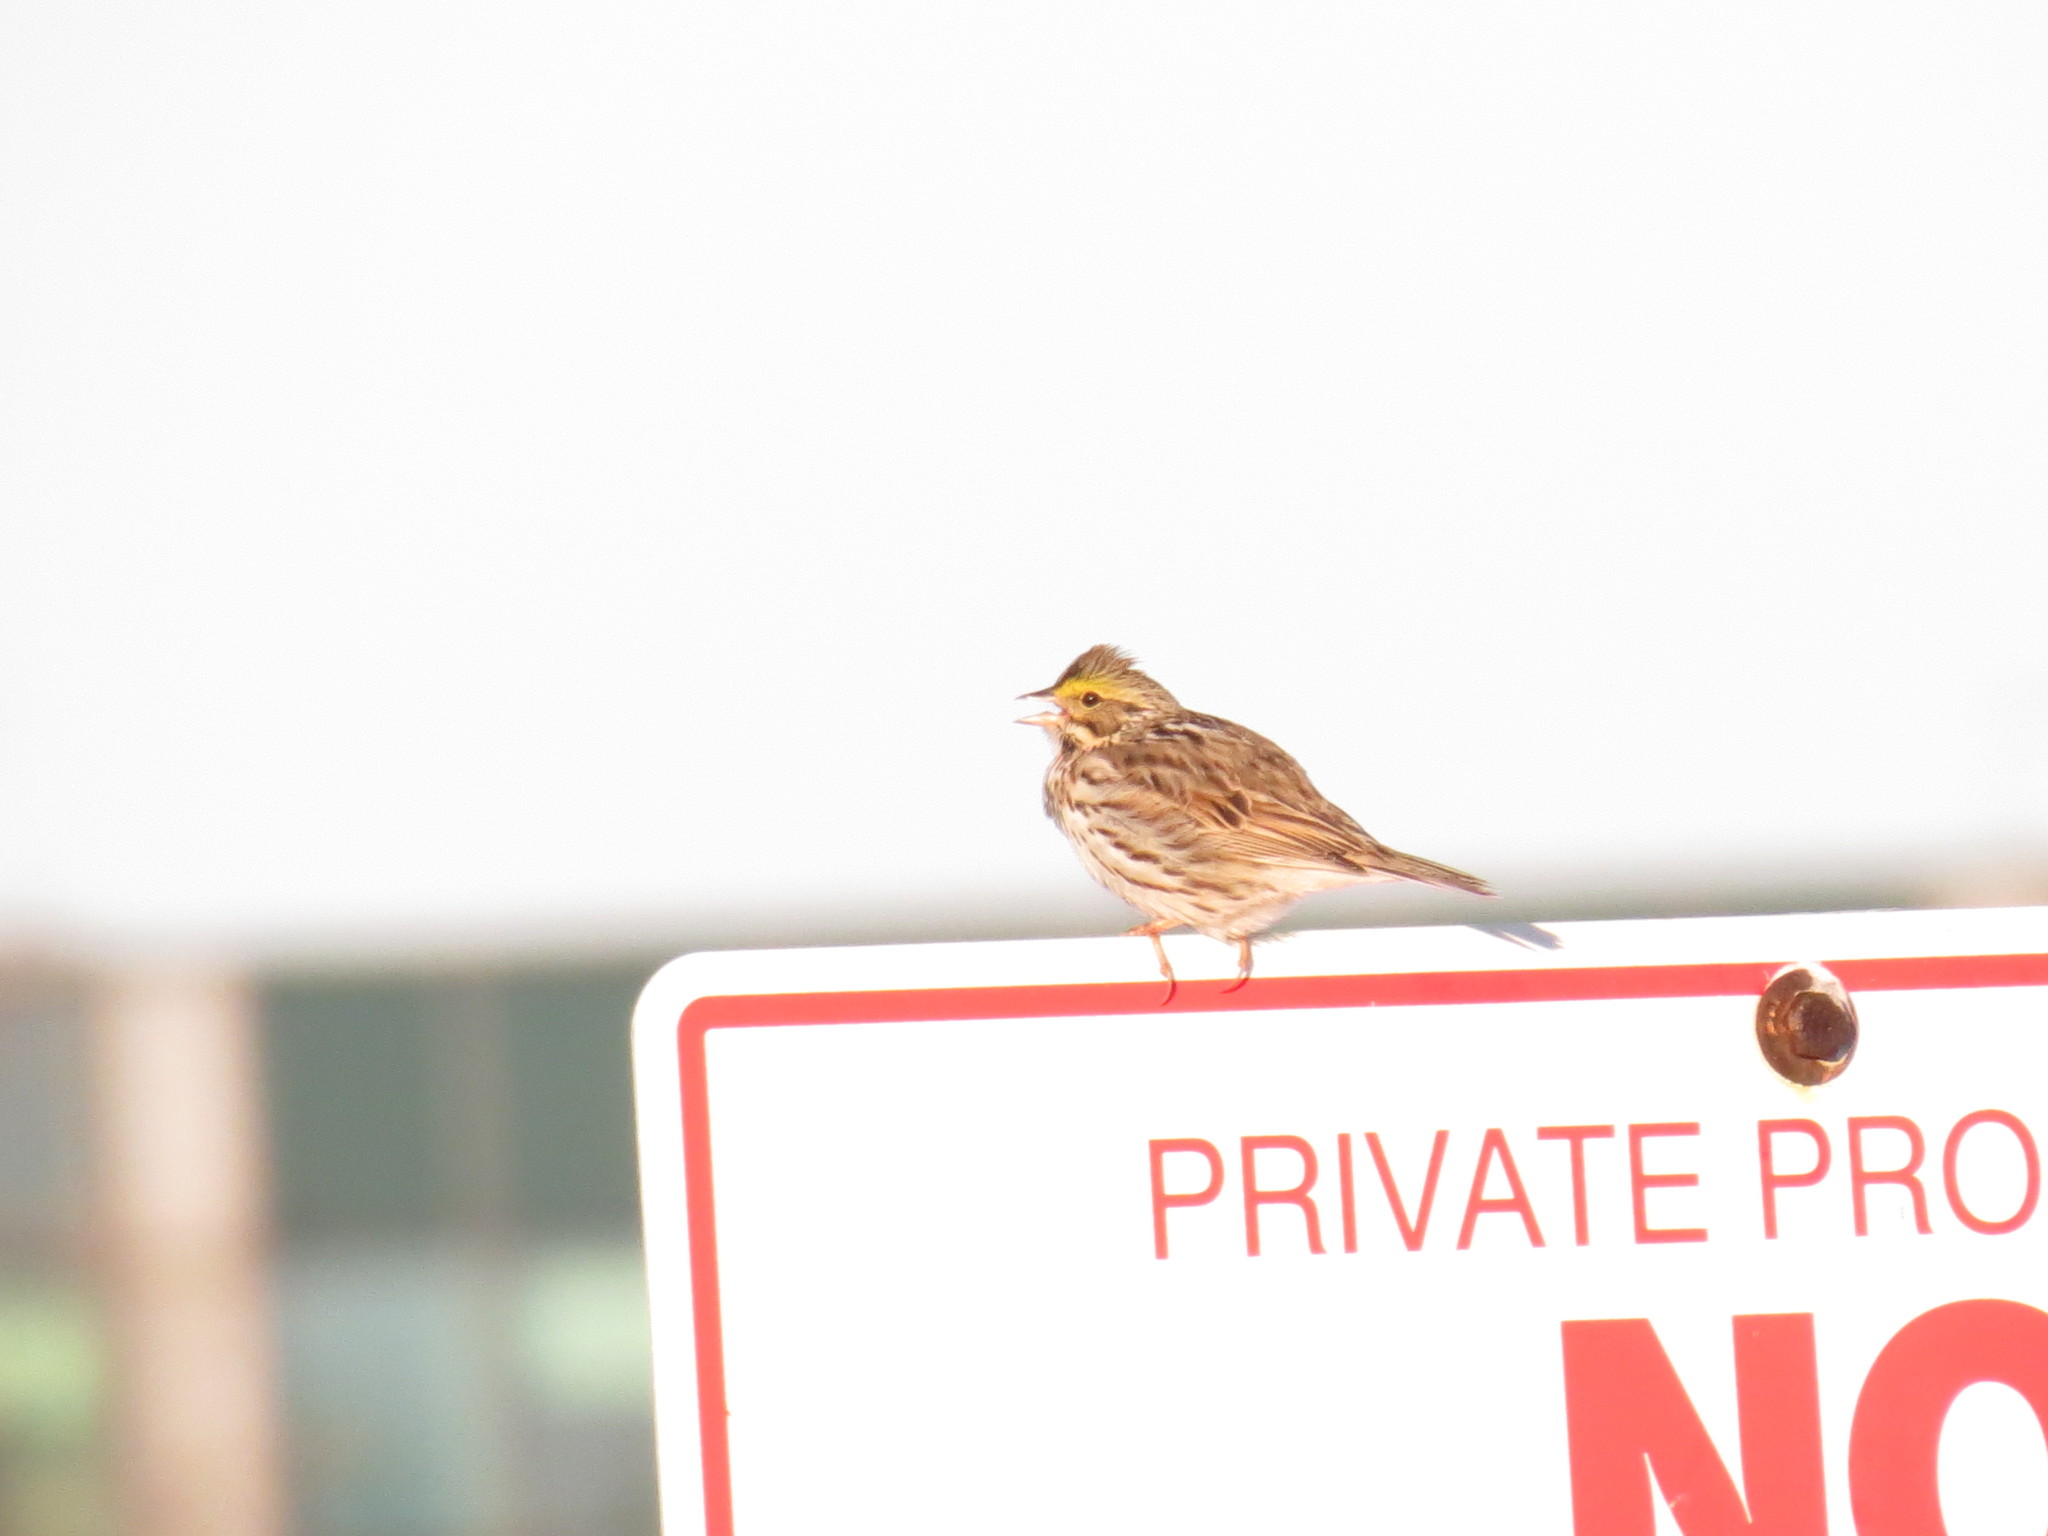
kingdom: Animalia
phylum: Chordata
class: Aves
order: Passeriformes
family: Passerellidae
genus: Passerculus
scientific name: Passerculus sandwichensis
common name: Savannah sparrow
